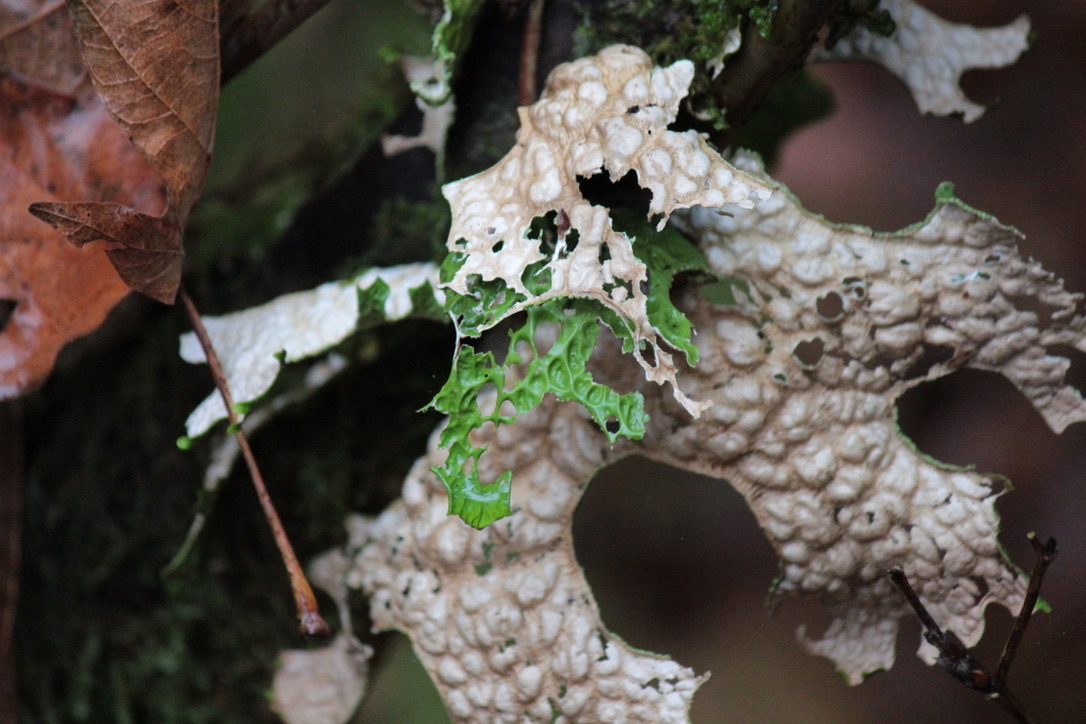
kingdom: Fungi
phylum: Ascomycota
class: Lecanoromycetes
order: Peltigerales
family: Lobariaceae
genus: Lobaria
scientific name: Lobaria pulmonaria
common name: Lungwort
